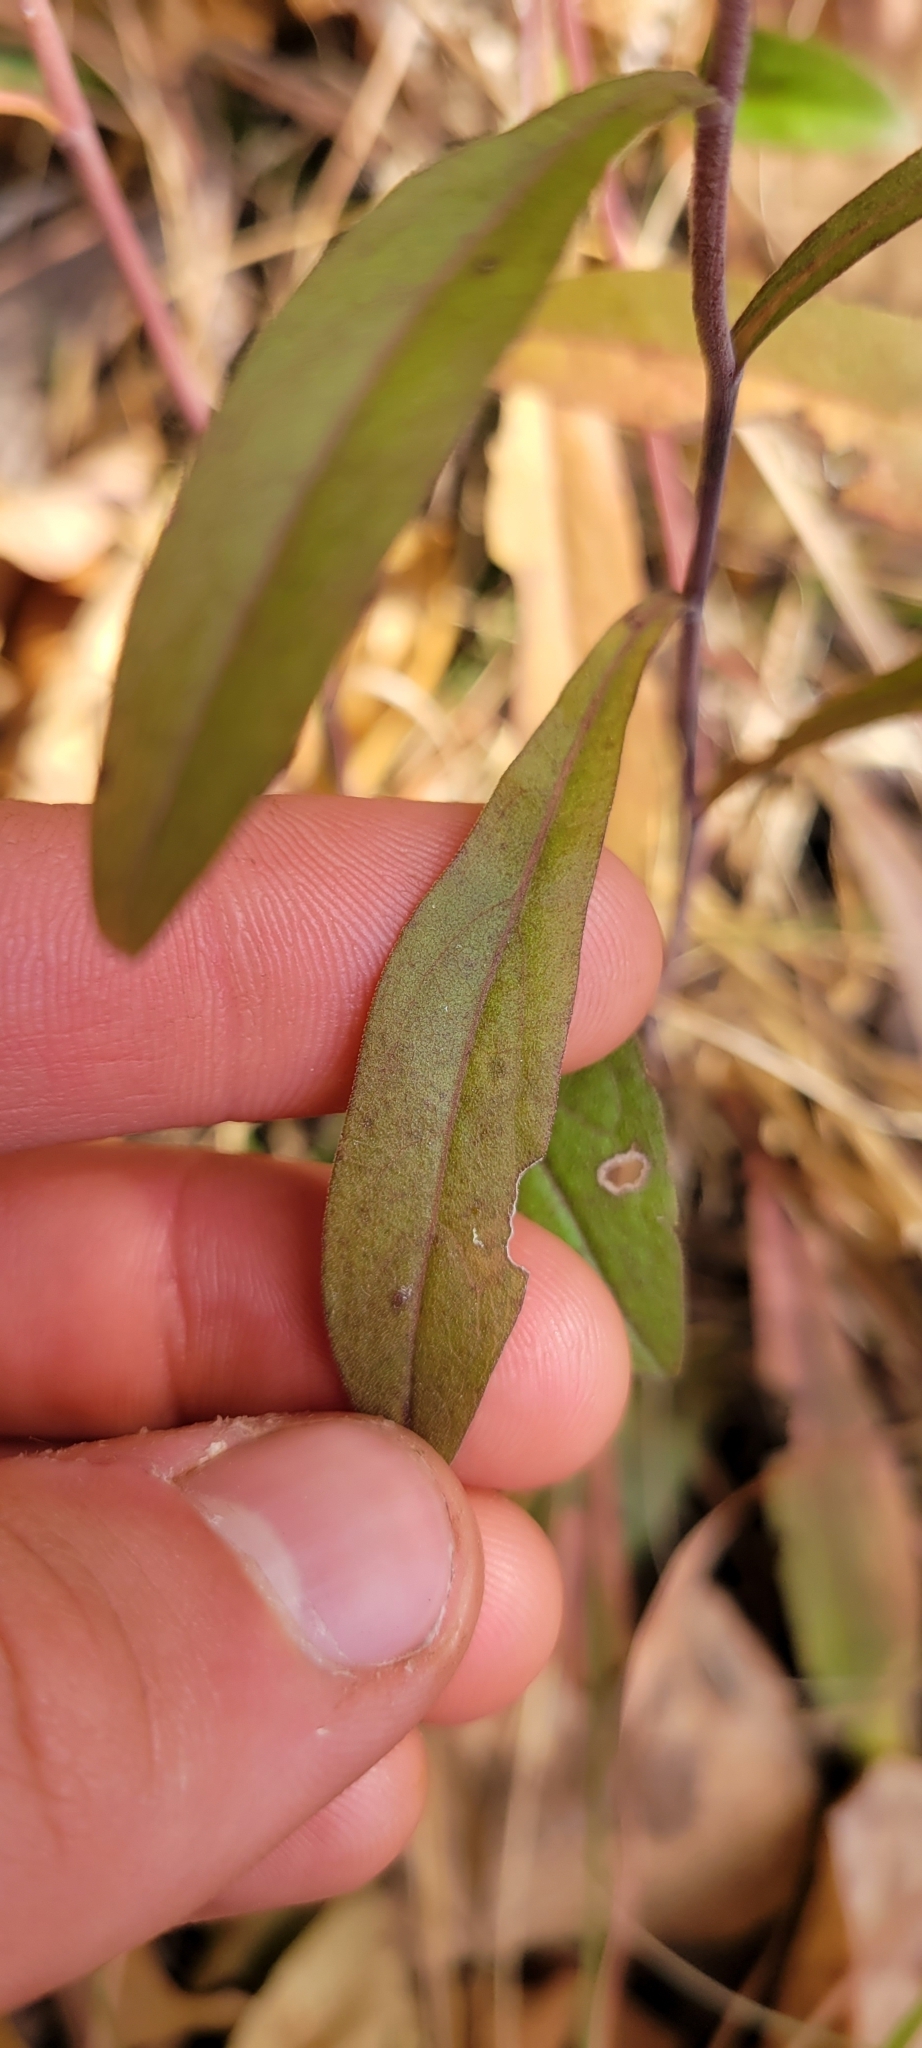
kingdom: Plantae
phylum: Tracheophyta
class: Magnoliopsida
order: Asterales
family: Asteraceae
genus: Solidago
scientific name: Solidago nemoralis
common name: Grey goldenrod
